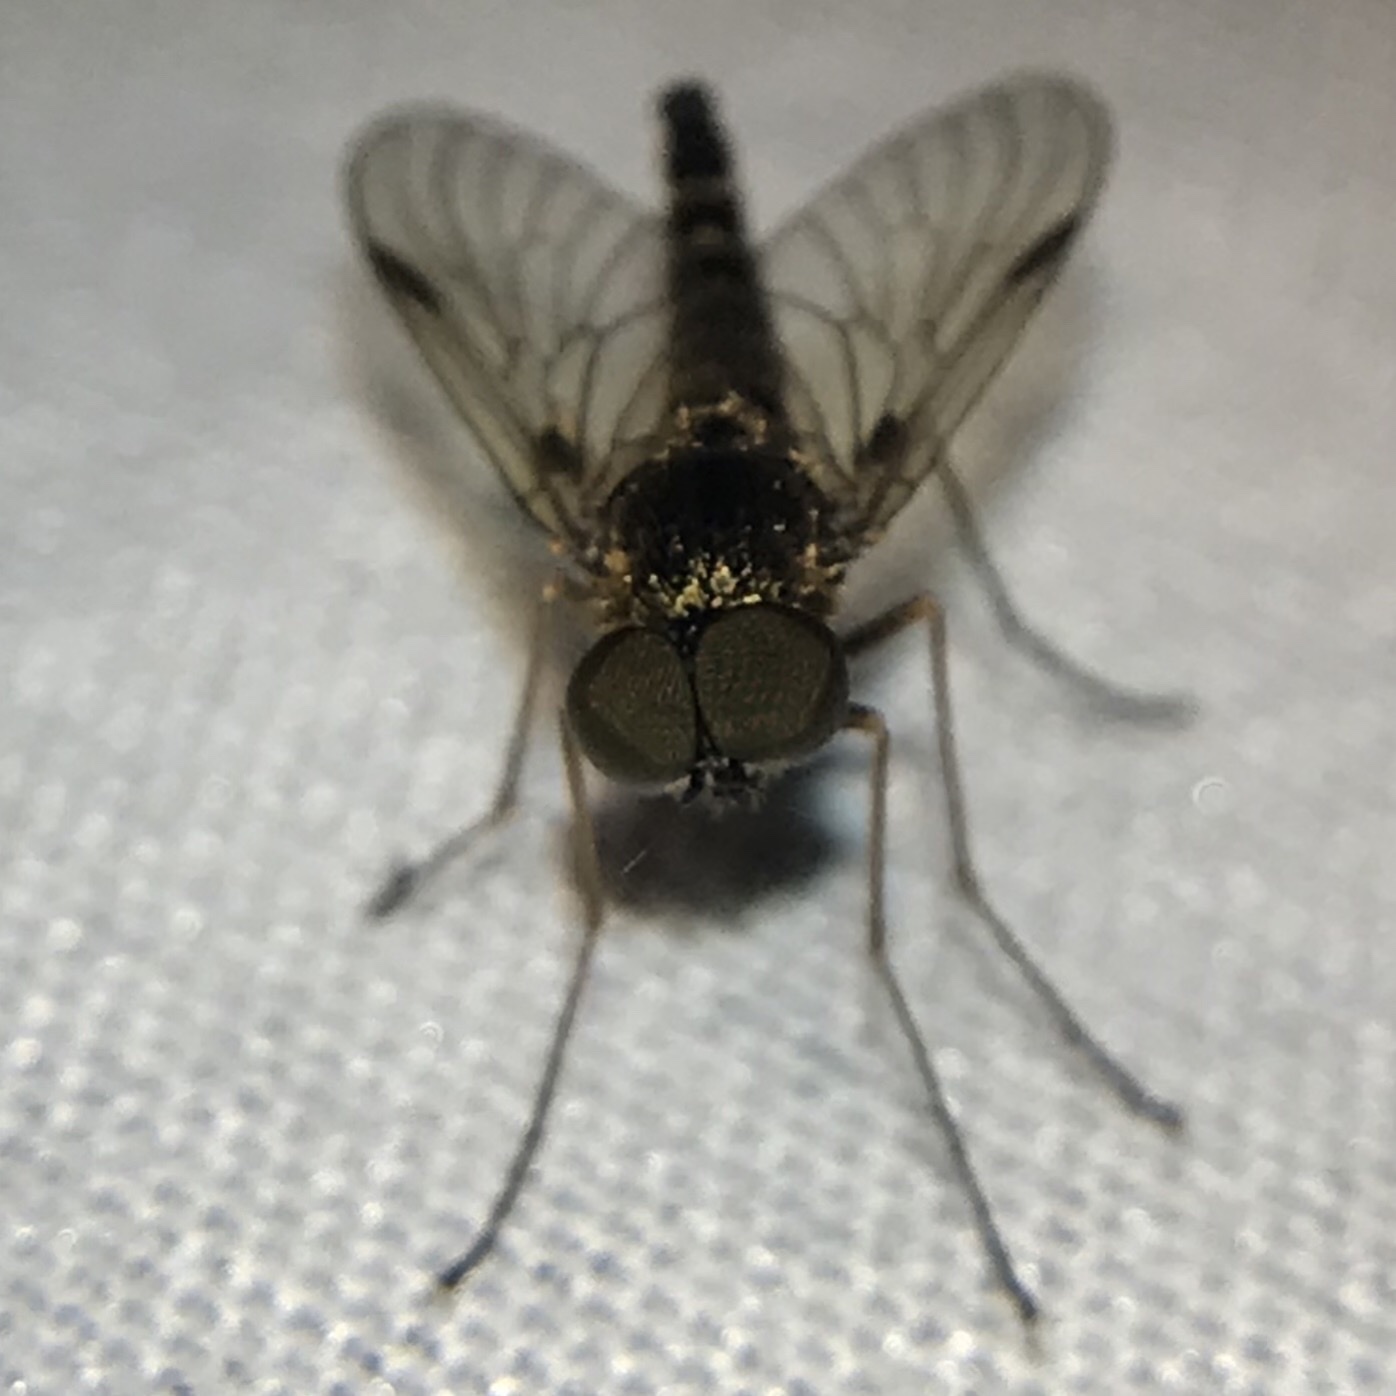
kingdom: Animalia
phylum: Arthropoda
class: Insecta
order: Diptera
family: Rhagionidae
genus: Chrysopilus
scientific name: Chrysopilus fasciatus
